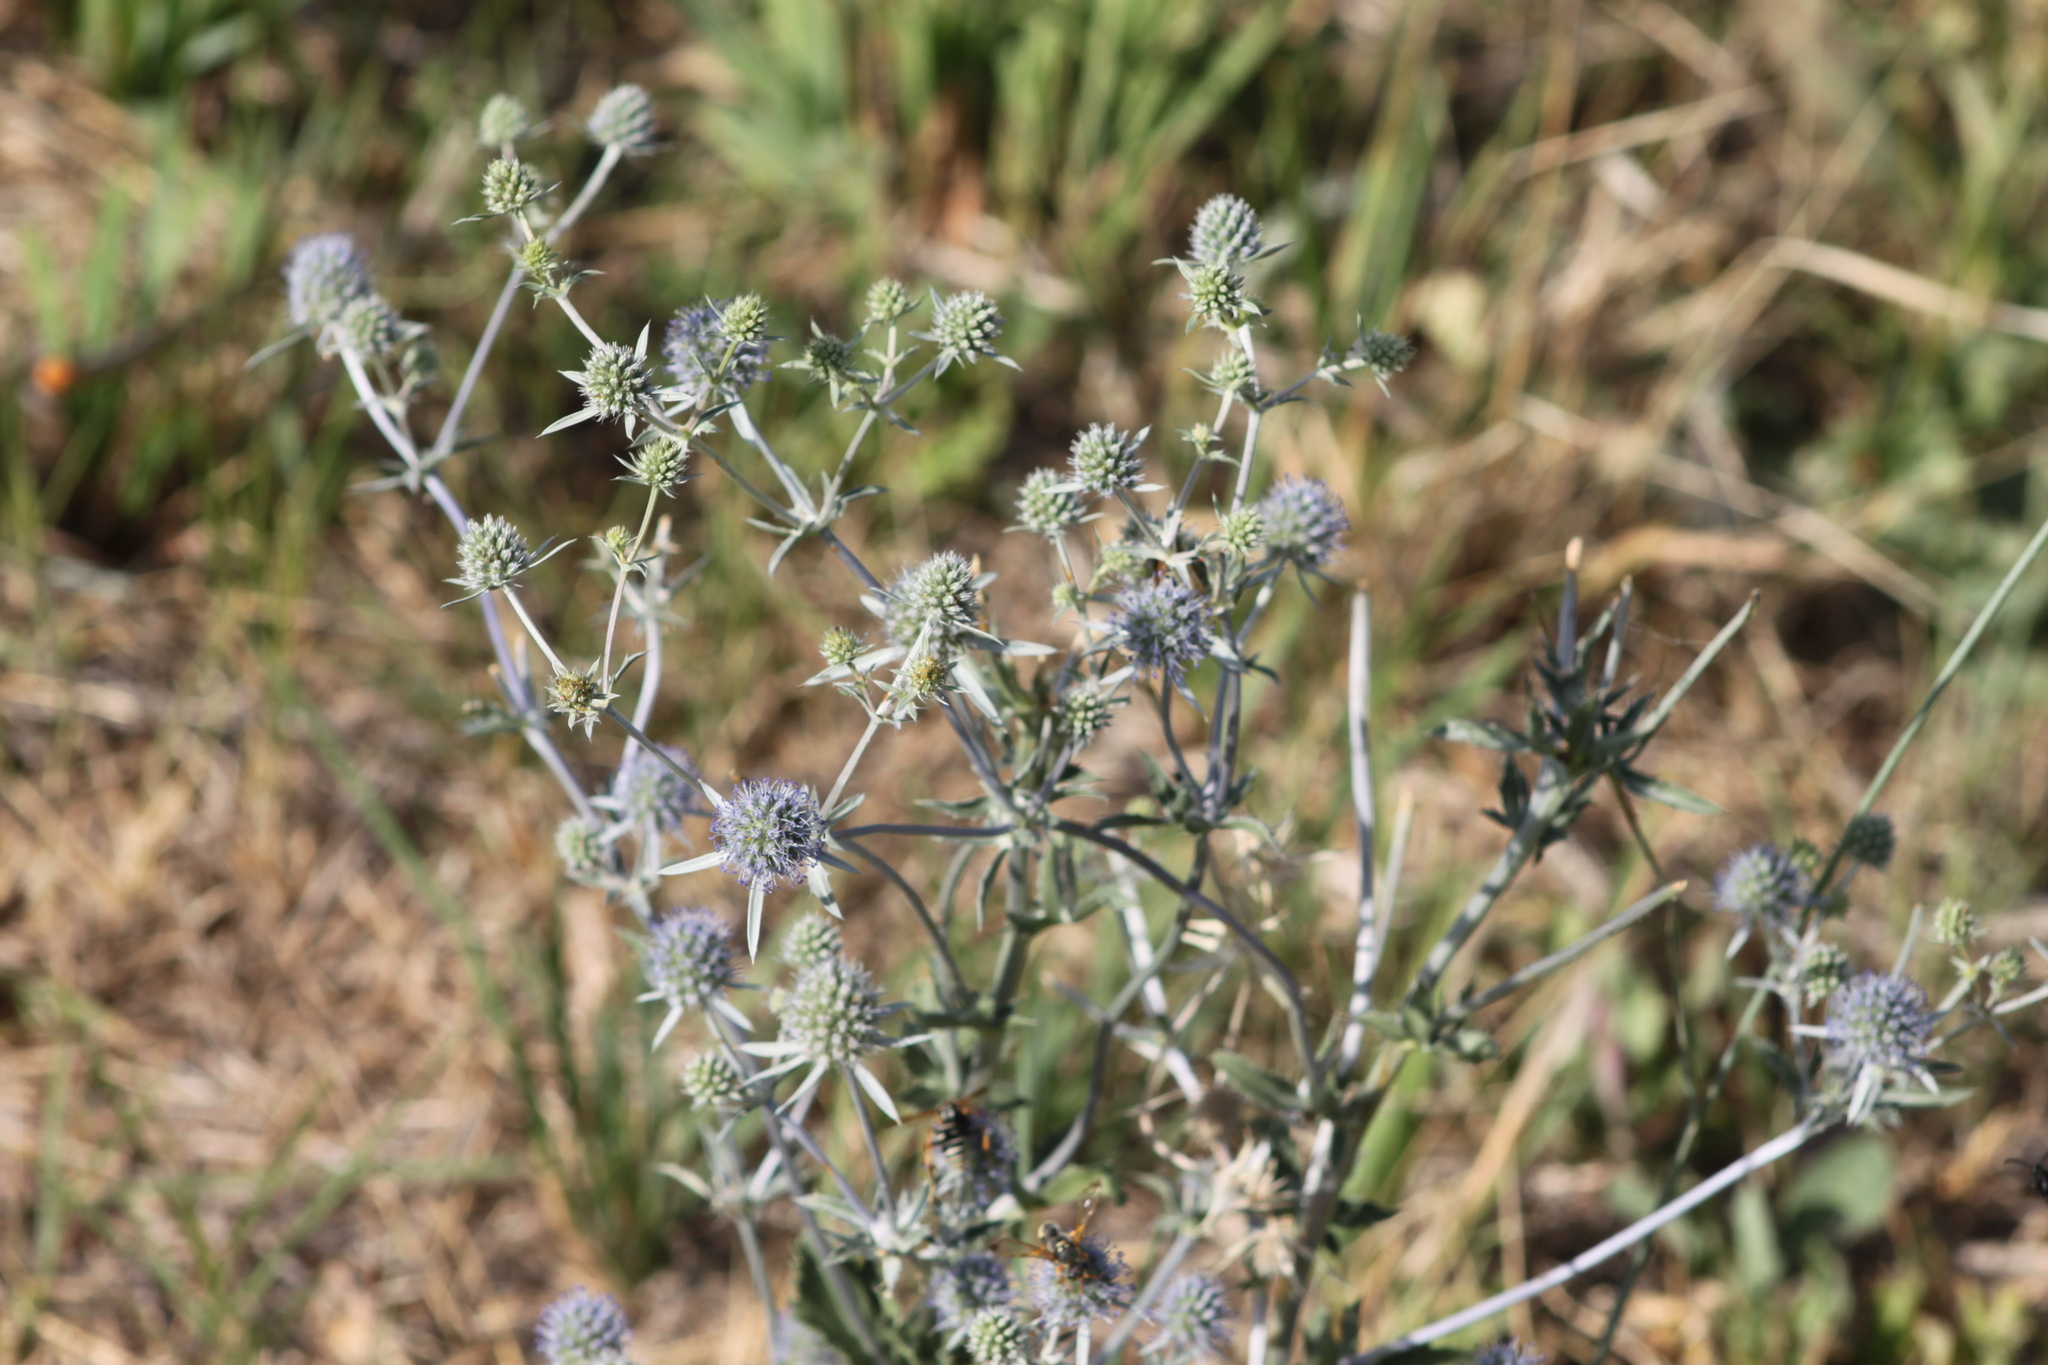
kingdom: Plantae
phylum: Tracheophyta
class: Magnoliopsida
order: Apiales
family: Apiaceae
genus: Eryngium
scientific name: Eryngium planum
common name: Blue eryngo
